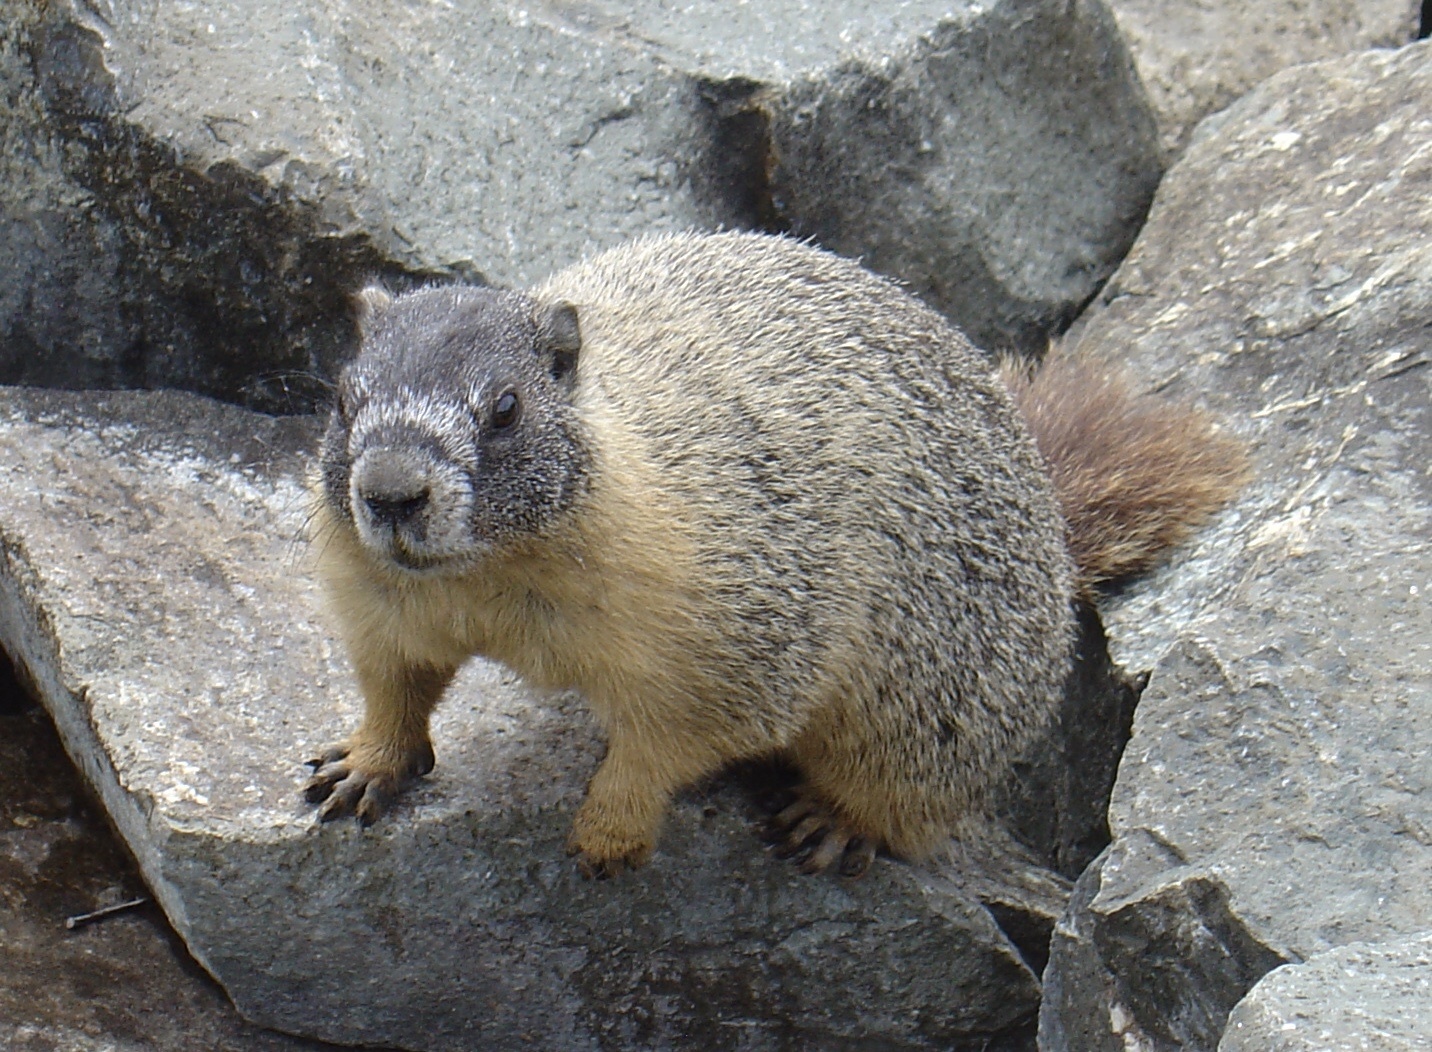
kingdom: Animalia
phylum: Chordata
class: Mammalia
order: Rodentia
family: Sciuridae
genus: Marmota
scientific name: Marmota flaviventris
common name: Yellow-bellied marmot
